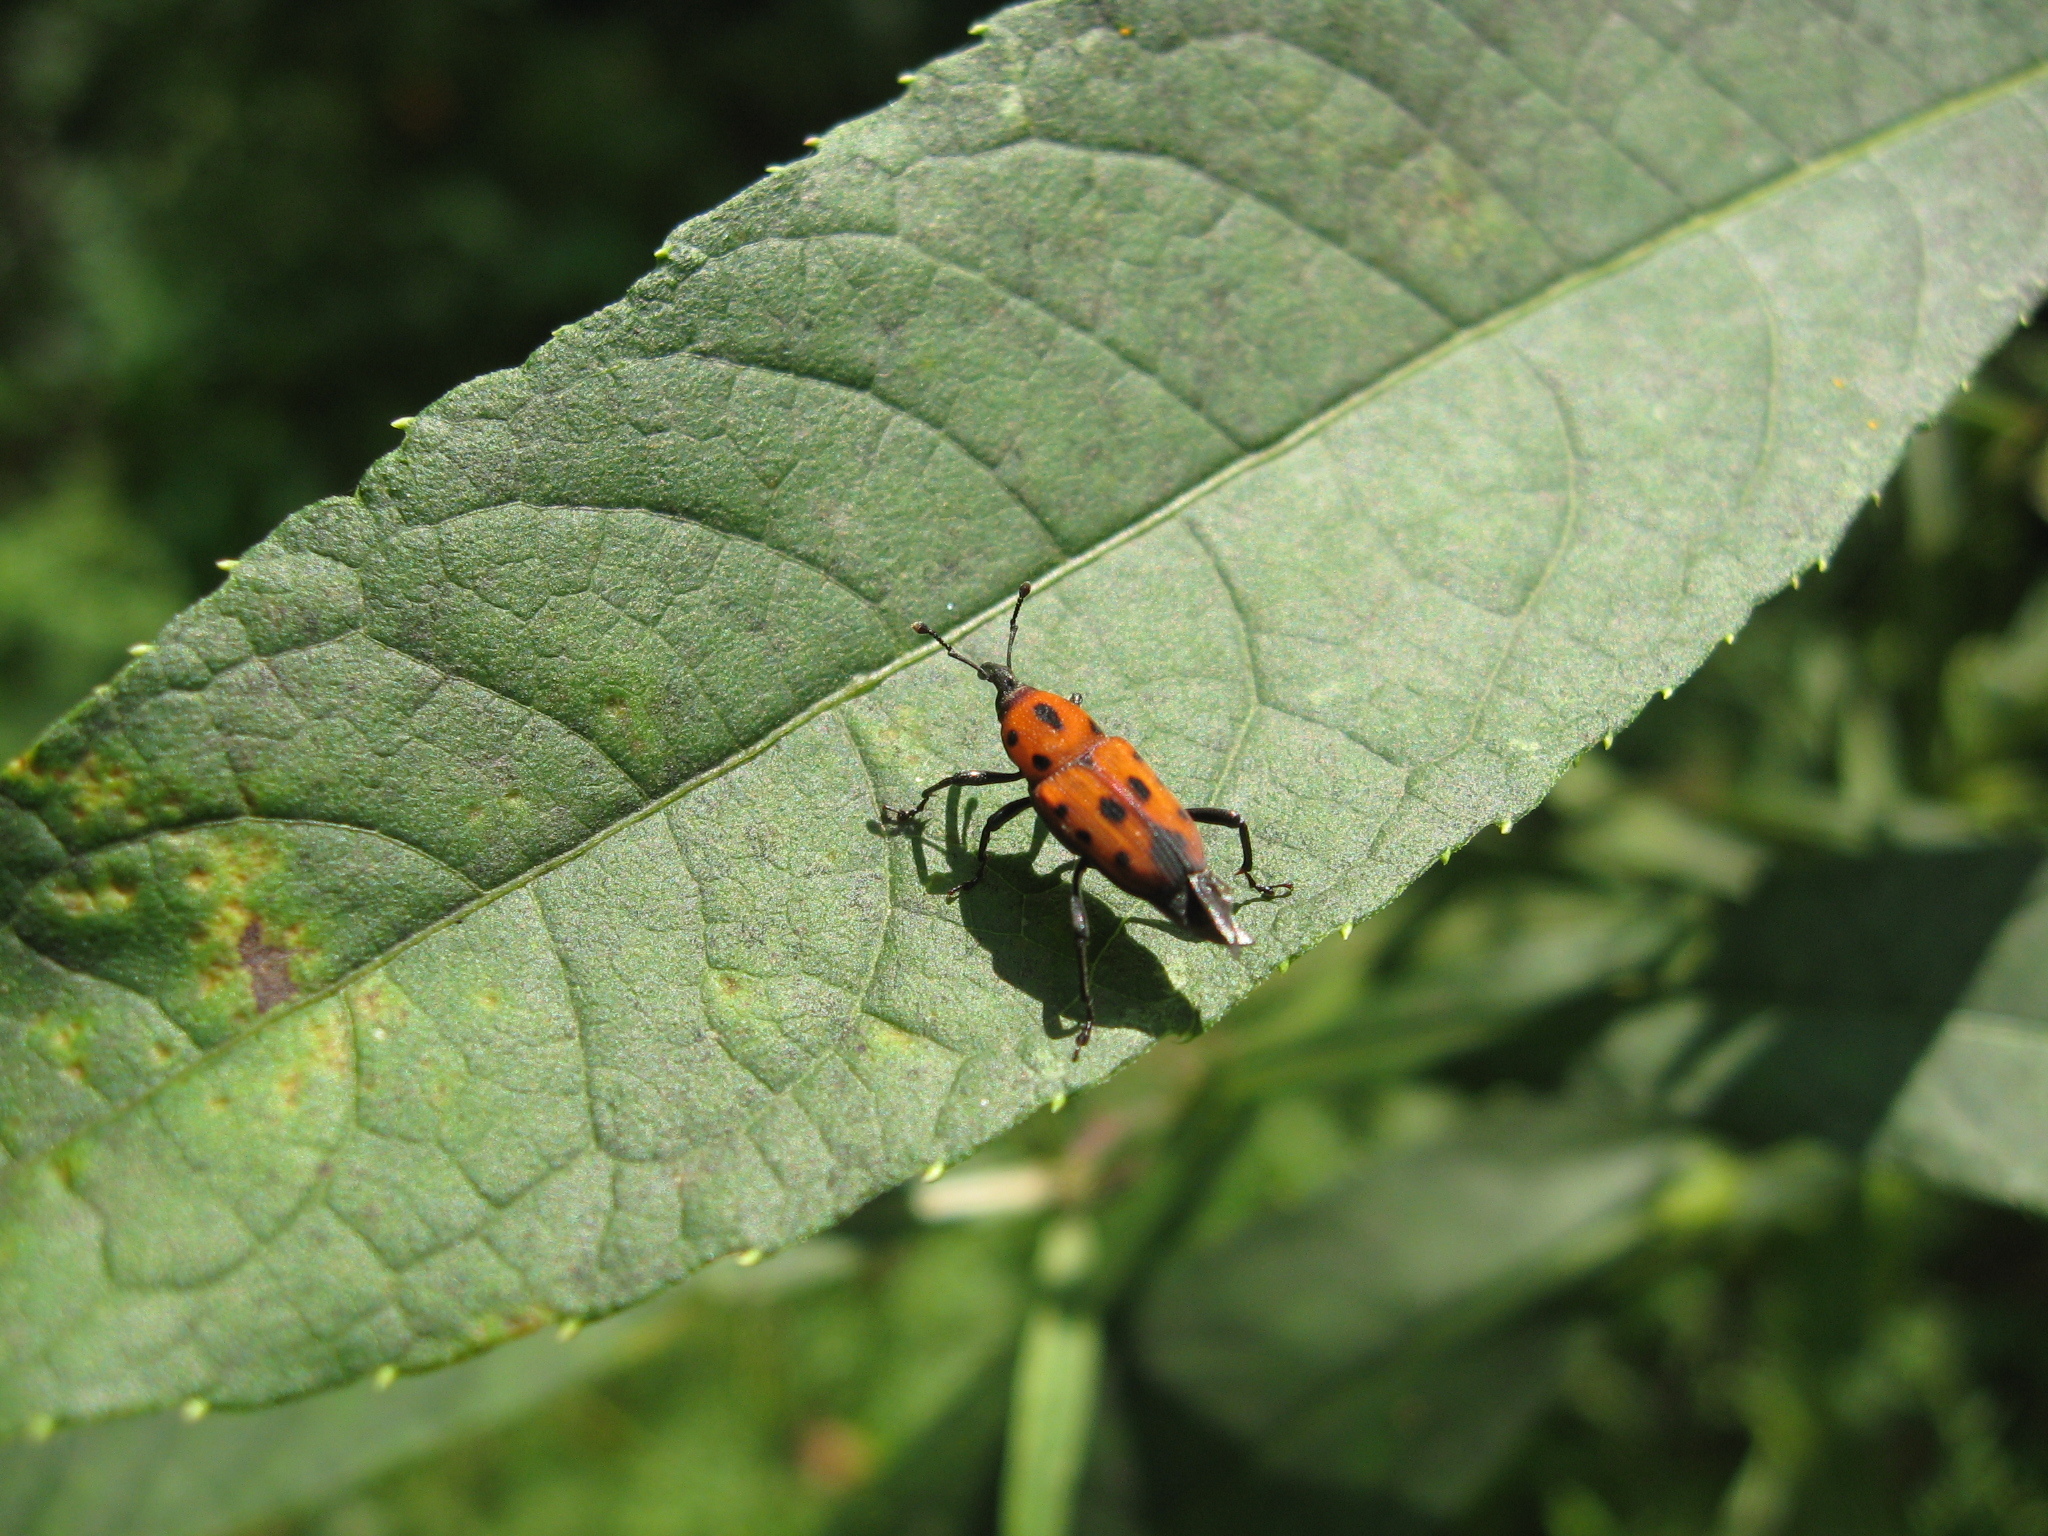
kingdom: Animalia
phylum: Arthropoda
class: Insecta
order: Coleoptera
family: Dryophthoridae
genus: Rhodobaenus
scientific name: Rhodobaenus tredecimpunctatus
